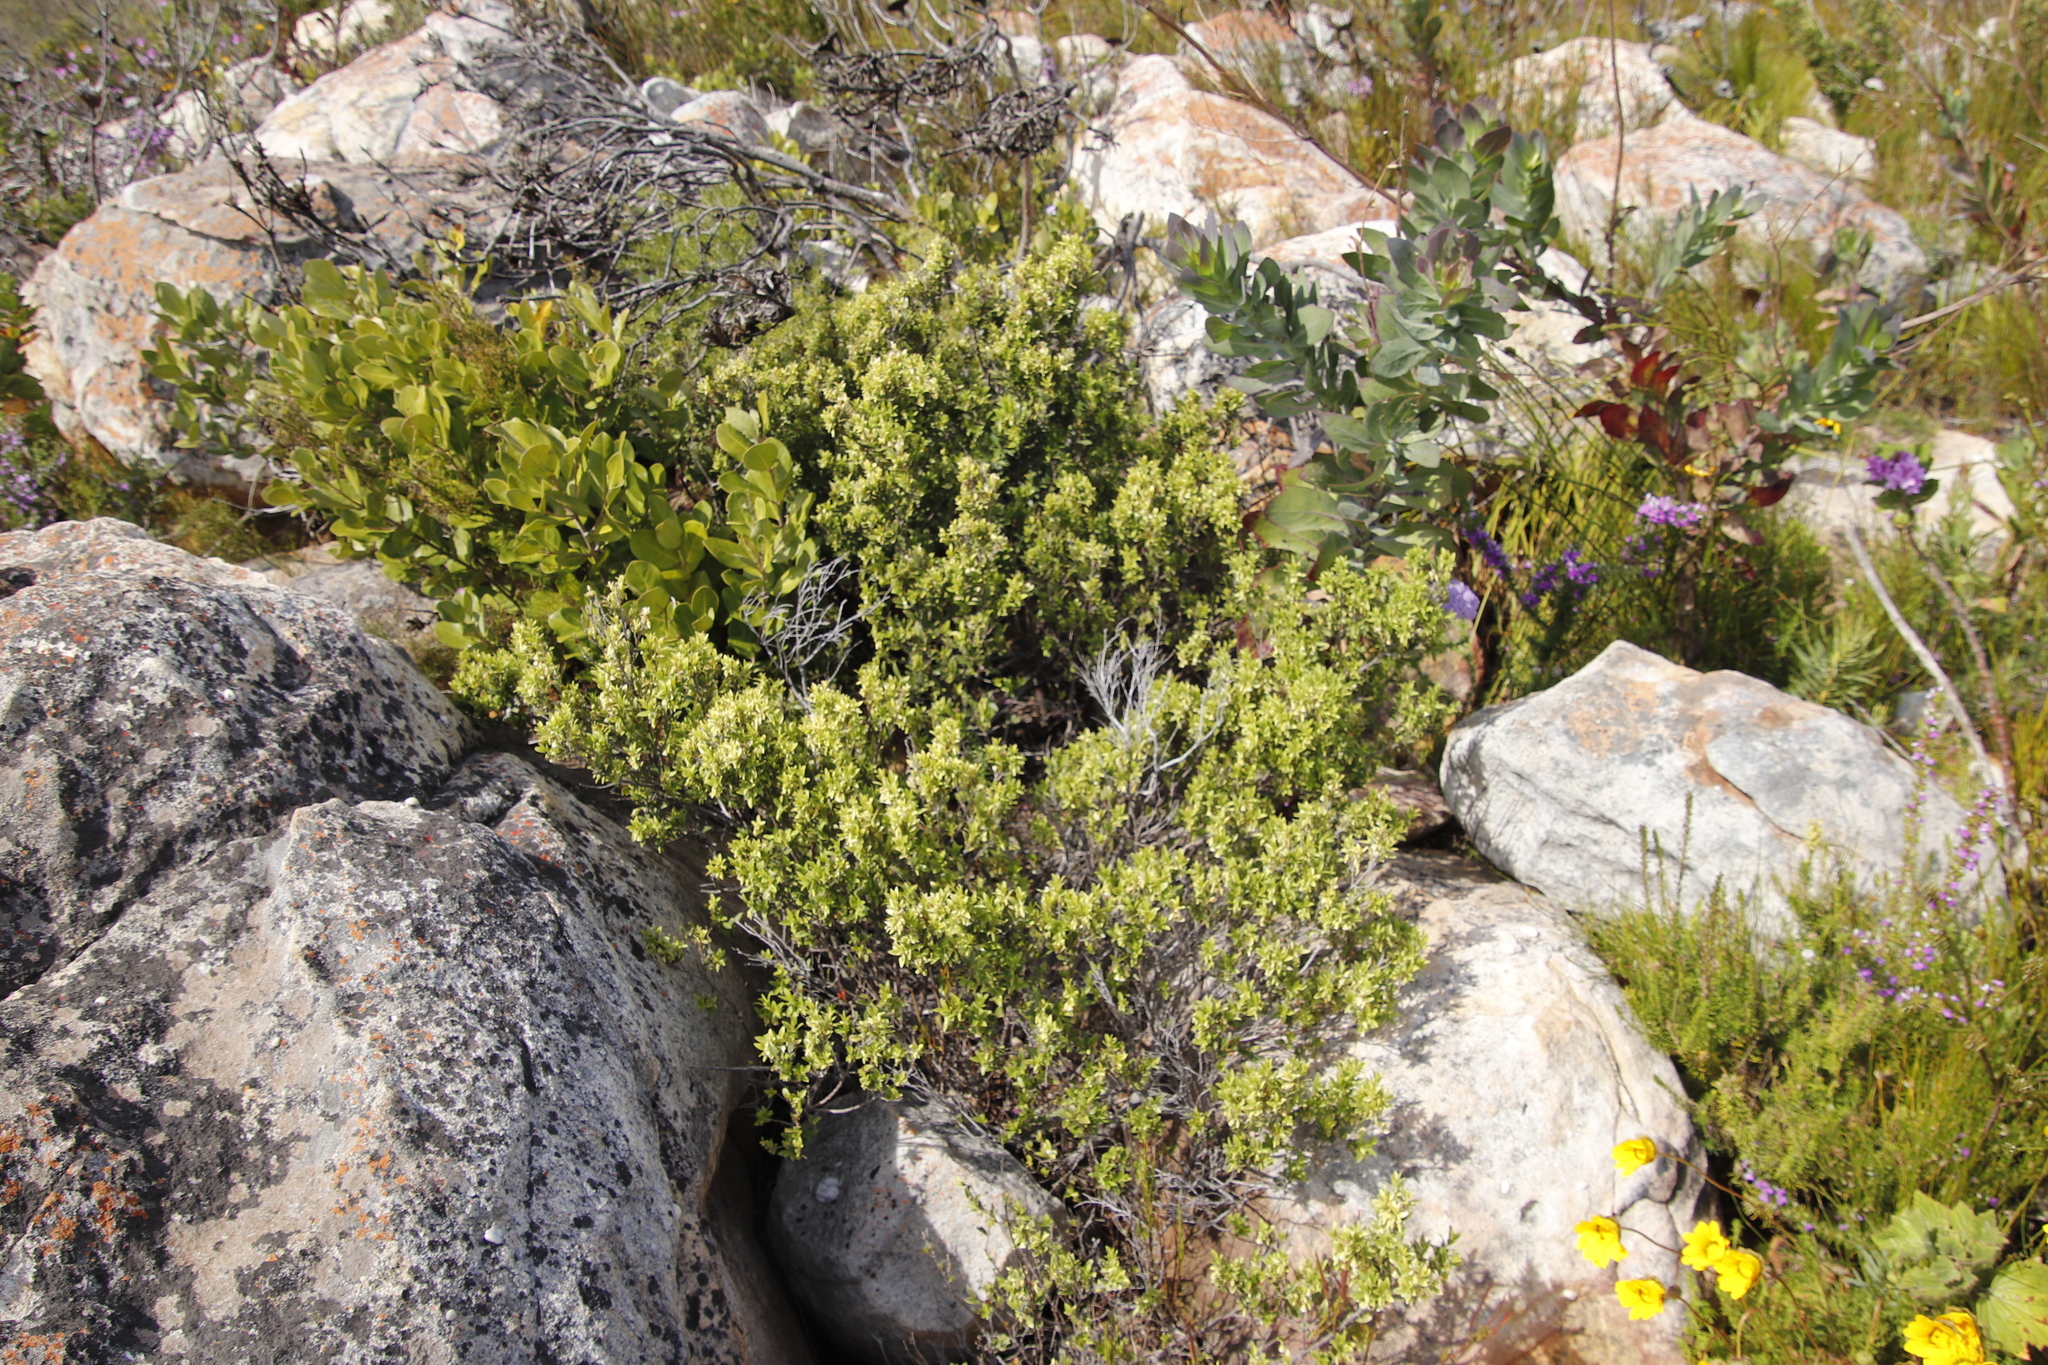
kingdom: Plantae
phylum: Tracheophyta
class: Magnoliopsida
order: Lamiales
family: Oleaceae
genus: Olea
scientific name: Olea capensis
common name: Black ironwood
